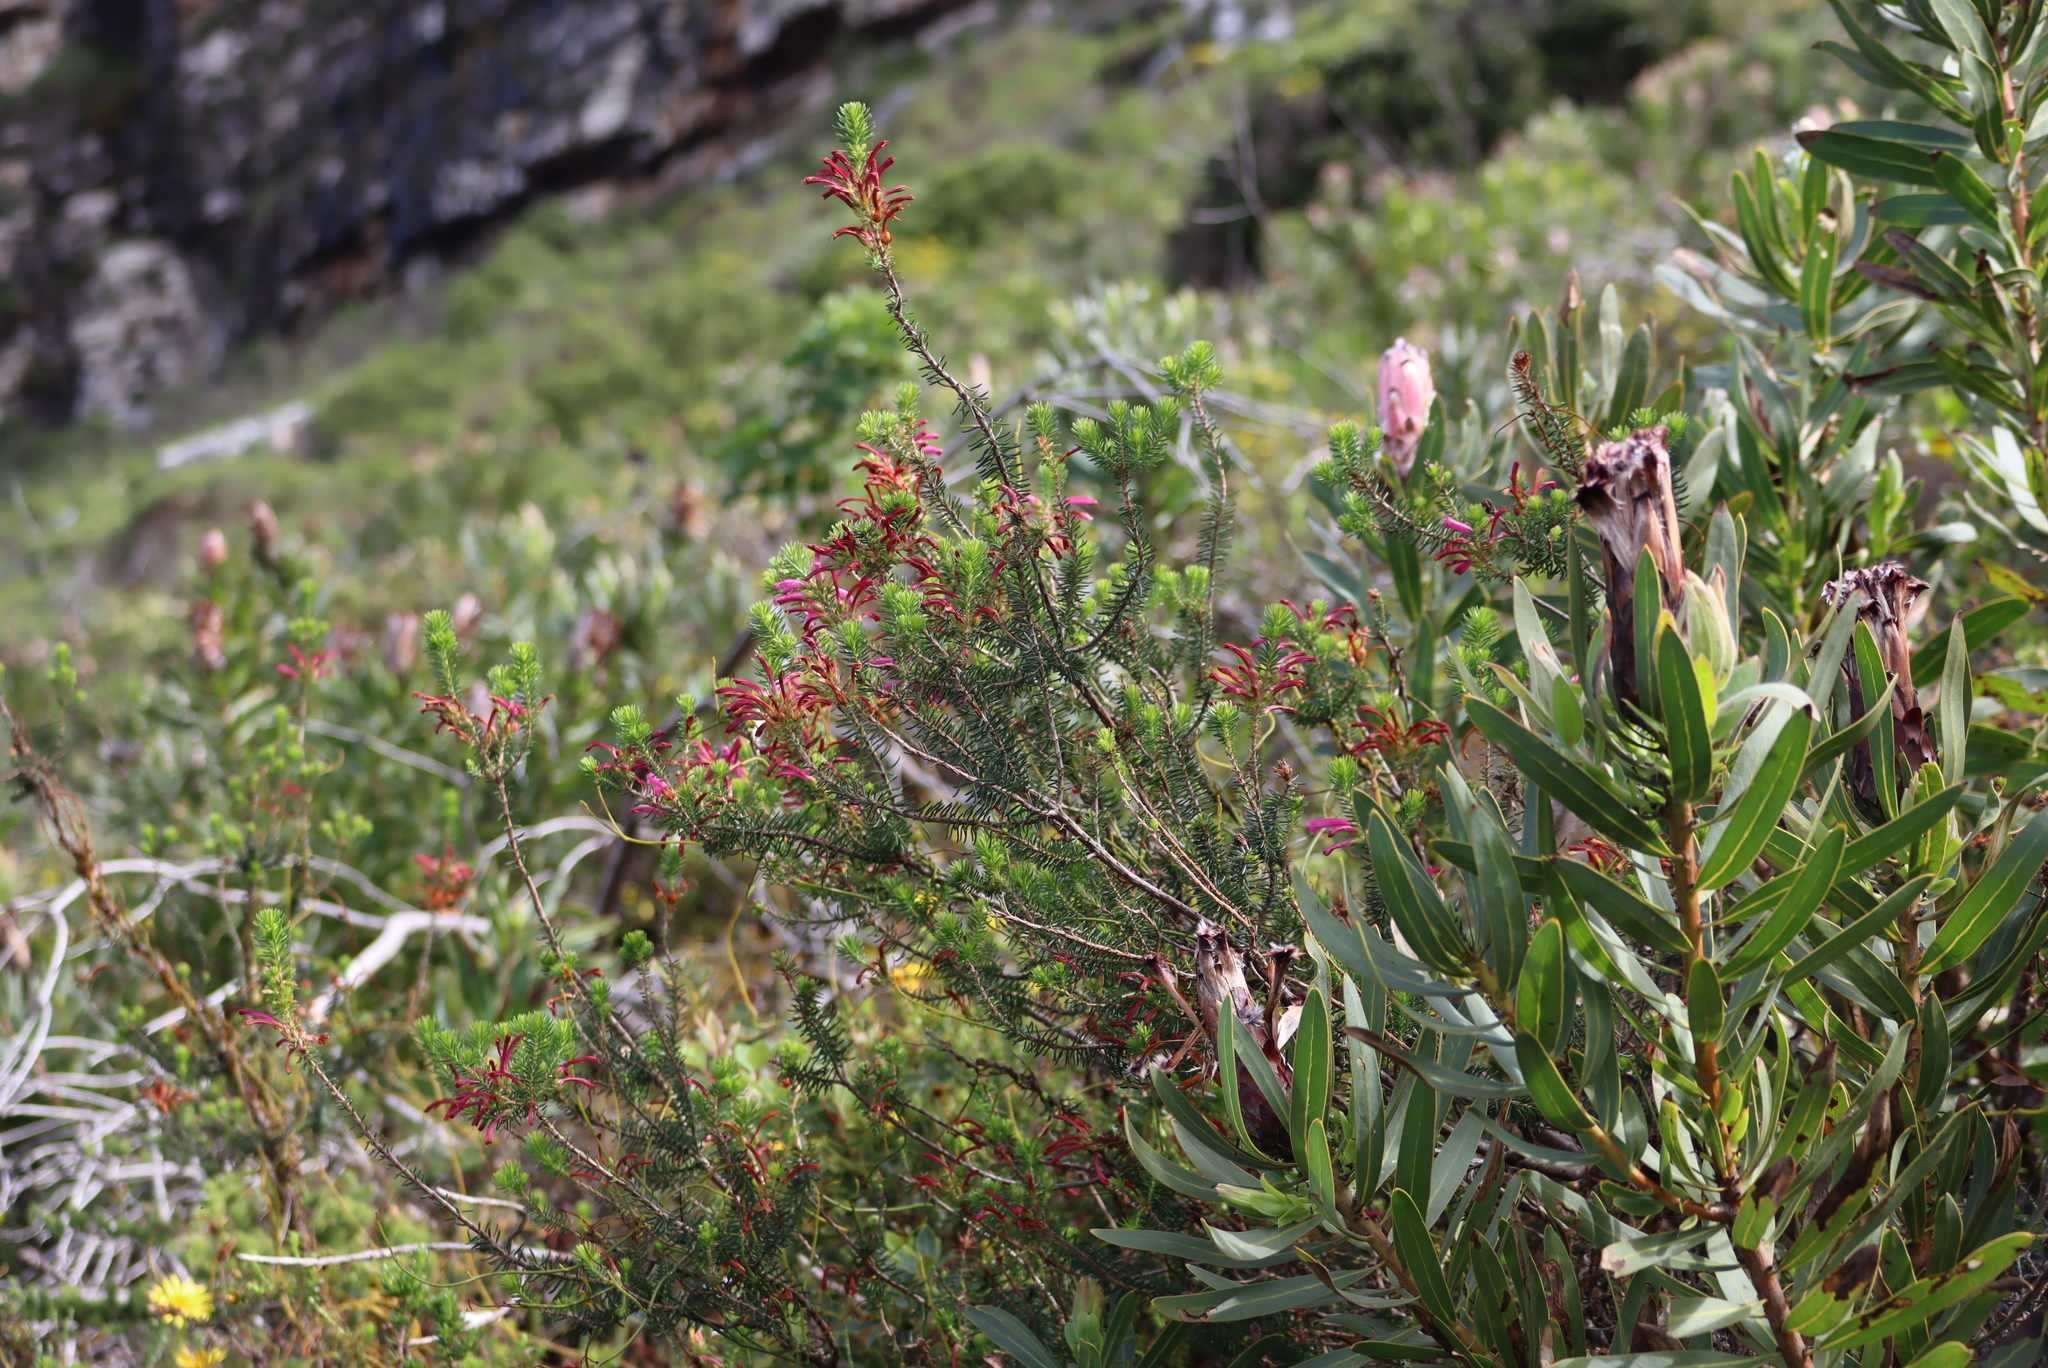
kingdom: Plantae
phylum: Tracheophyta
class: Magnoliopsida
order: Ericales
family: Ericaceae
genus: Erica
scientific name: Erica abietina
